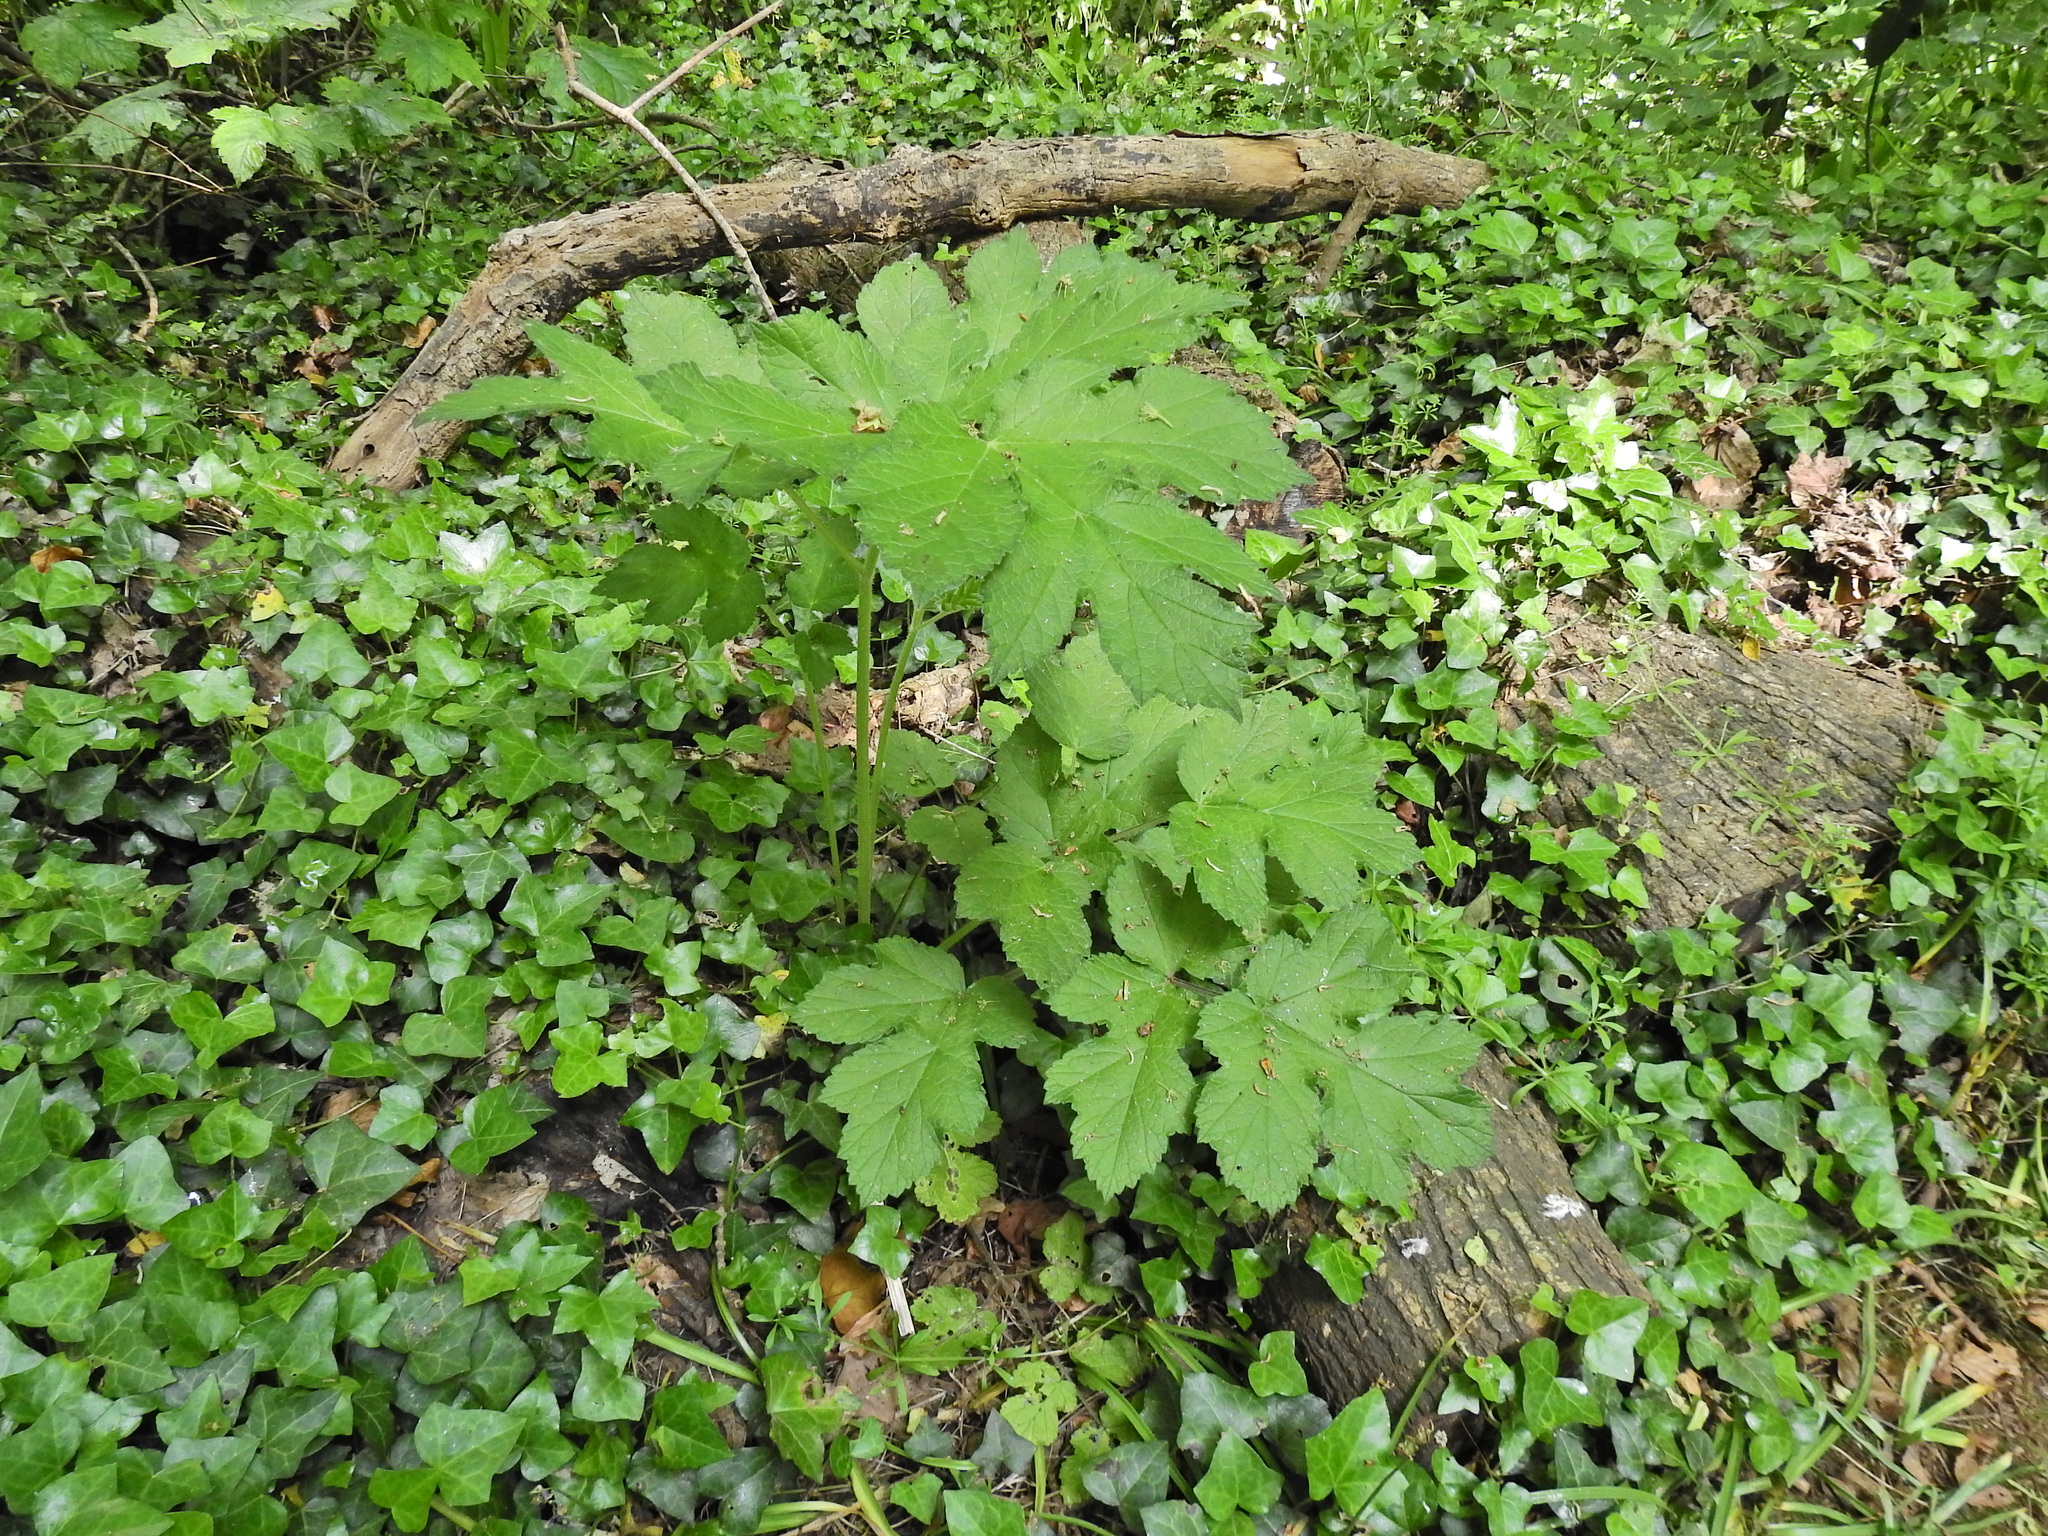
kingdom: Plantae
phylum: Tracheophyta
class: Magnoliopsida
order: Apiales
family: Apiaceae
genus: Heracleum
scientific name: Heracleum sphondylium
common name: Hogweed
